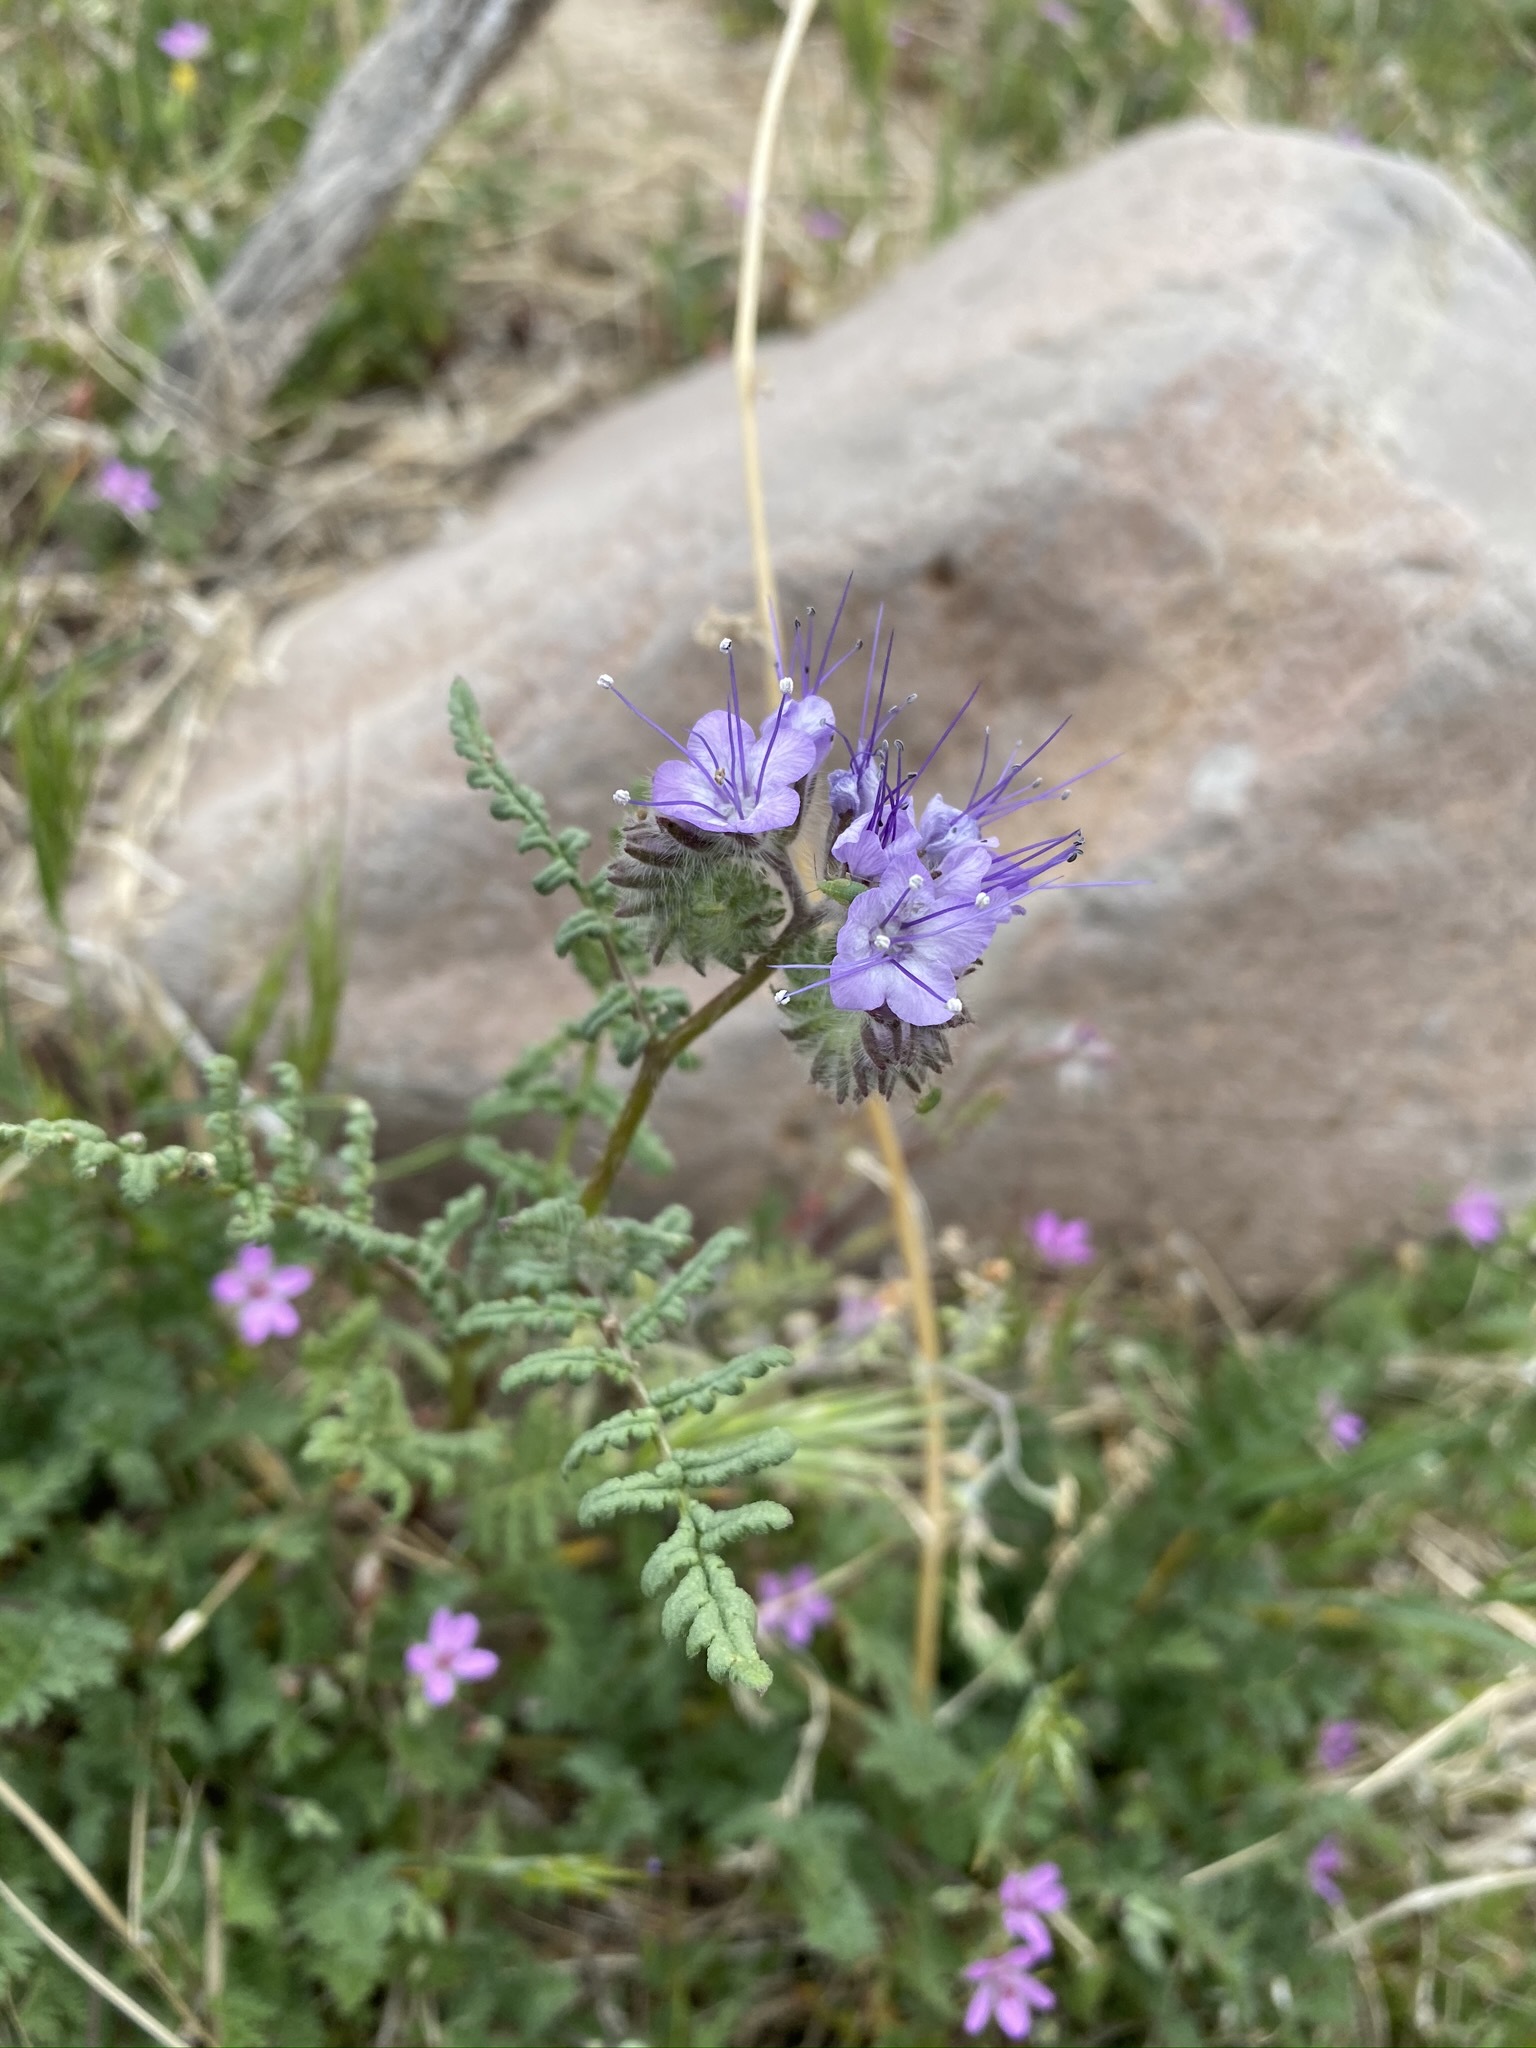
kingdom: Plantae
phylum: Tracheophyta
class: Magnoliopsida
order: Boraginales
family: Hydrophyllaceae
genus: Phacelia
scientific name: Phacelia tanacetifolia
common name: Phacelia
